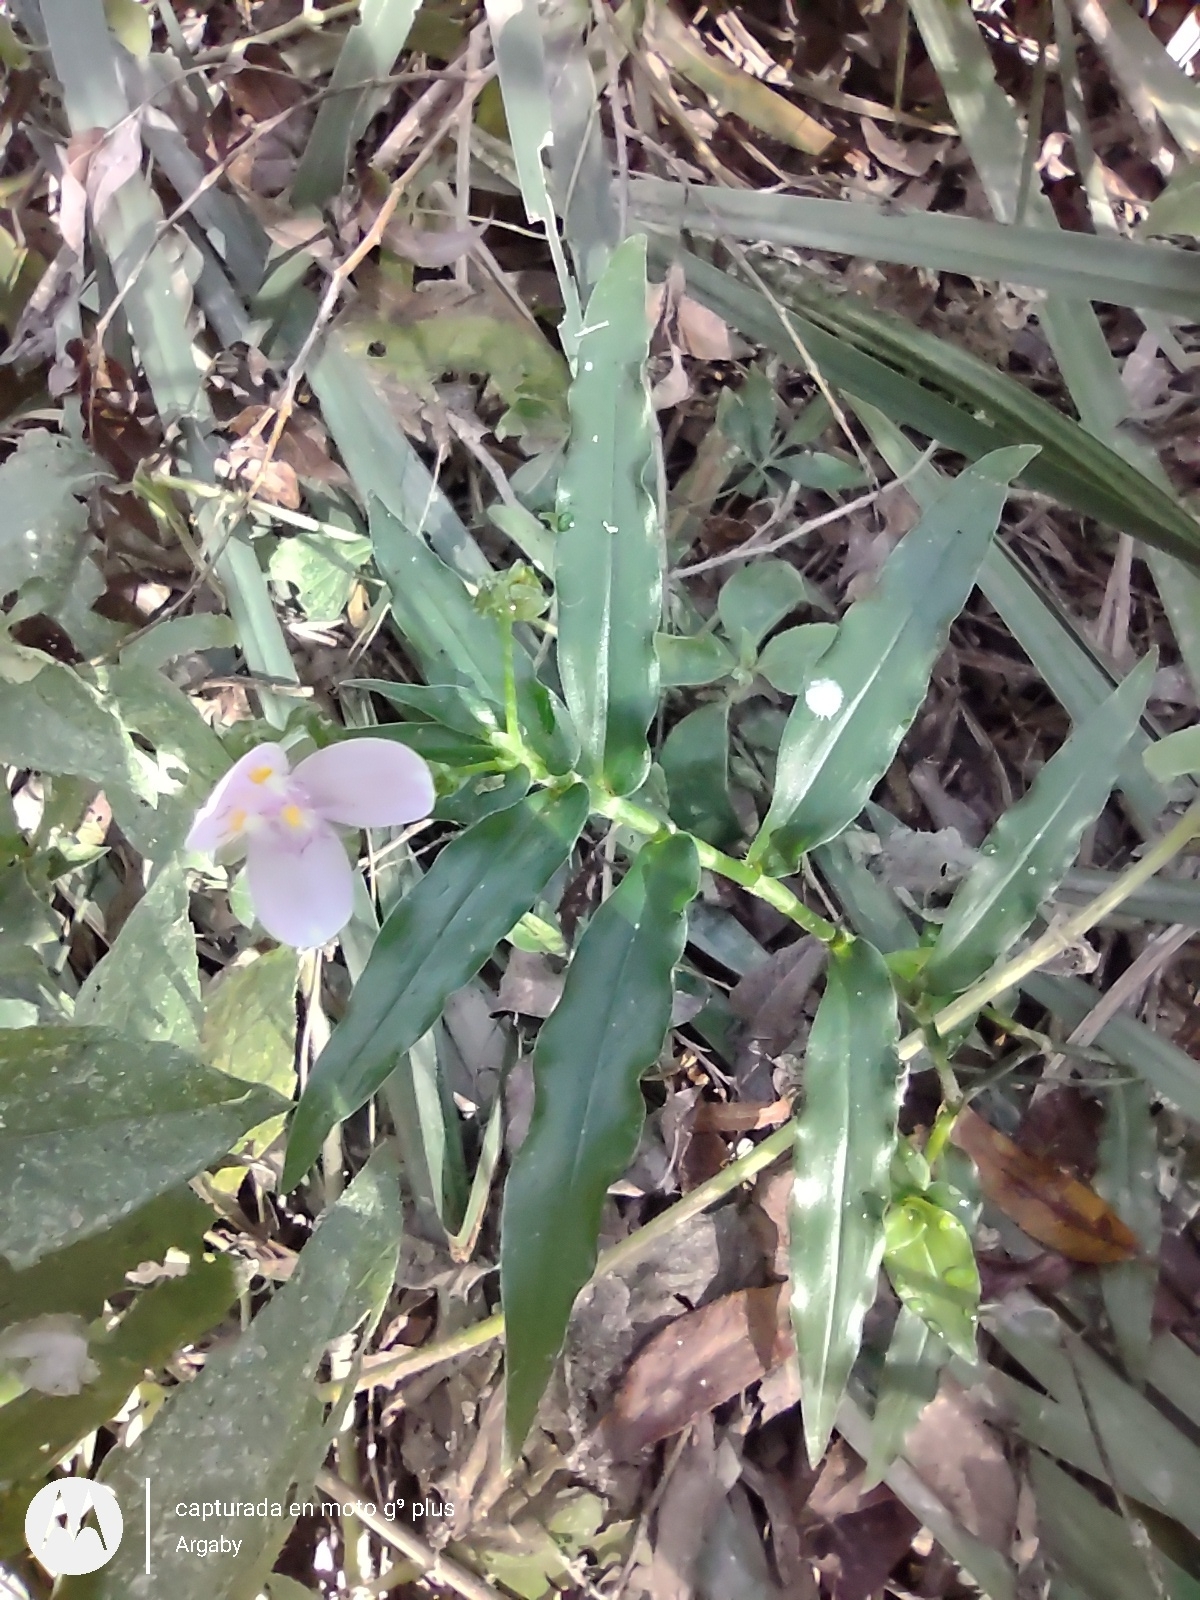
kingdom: Plantae
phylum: Tracheophyta
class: Liliopsida
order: Commelinales
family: Commelinaceae
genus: Callisia
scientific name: Callisia diuretica
